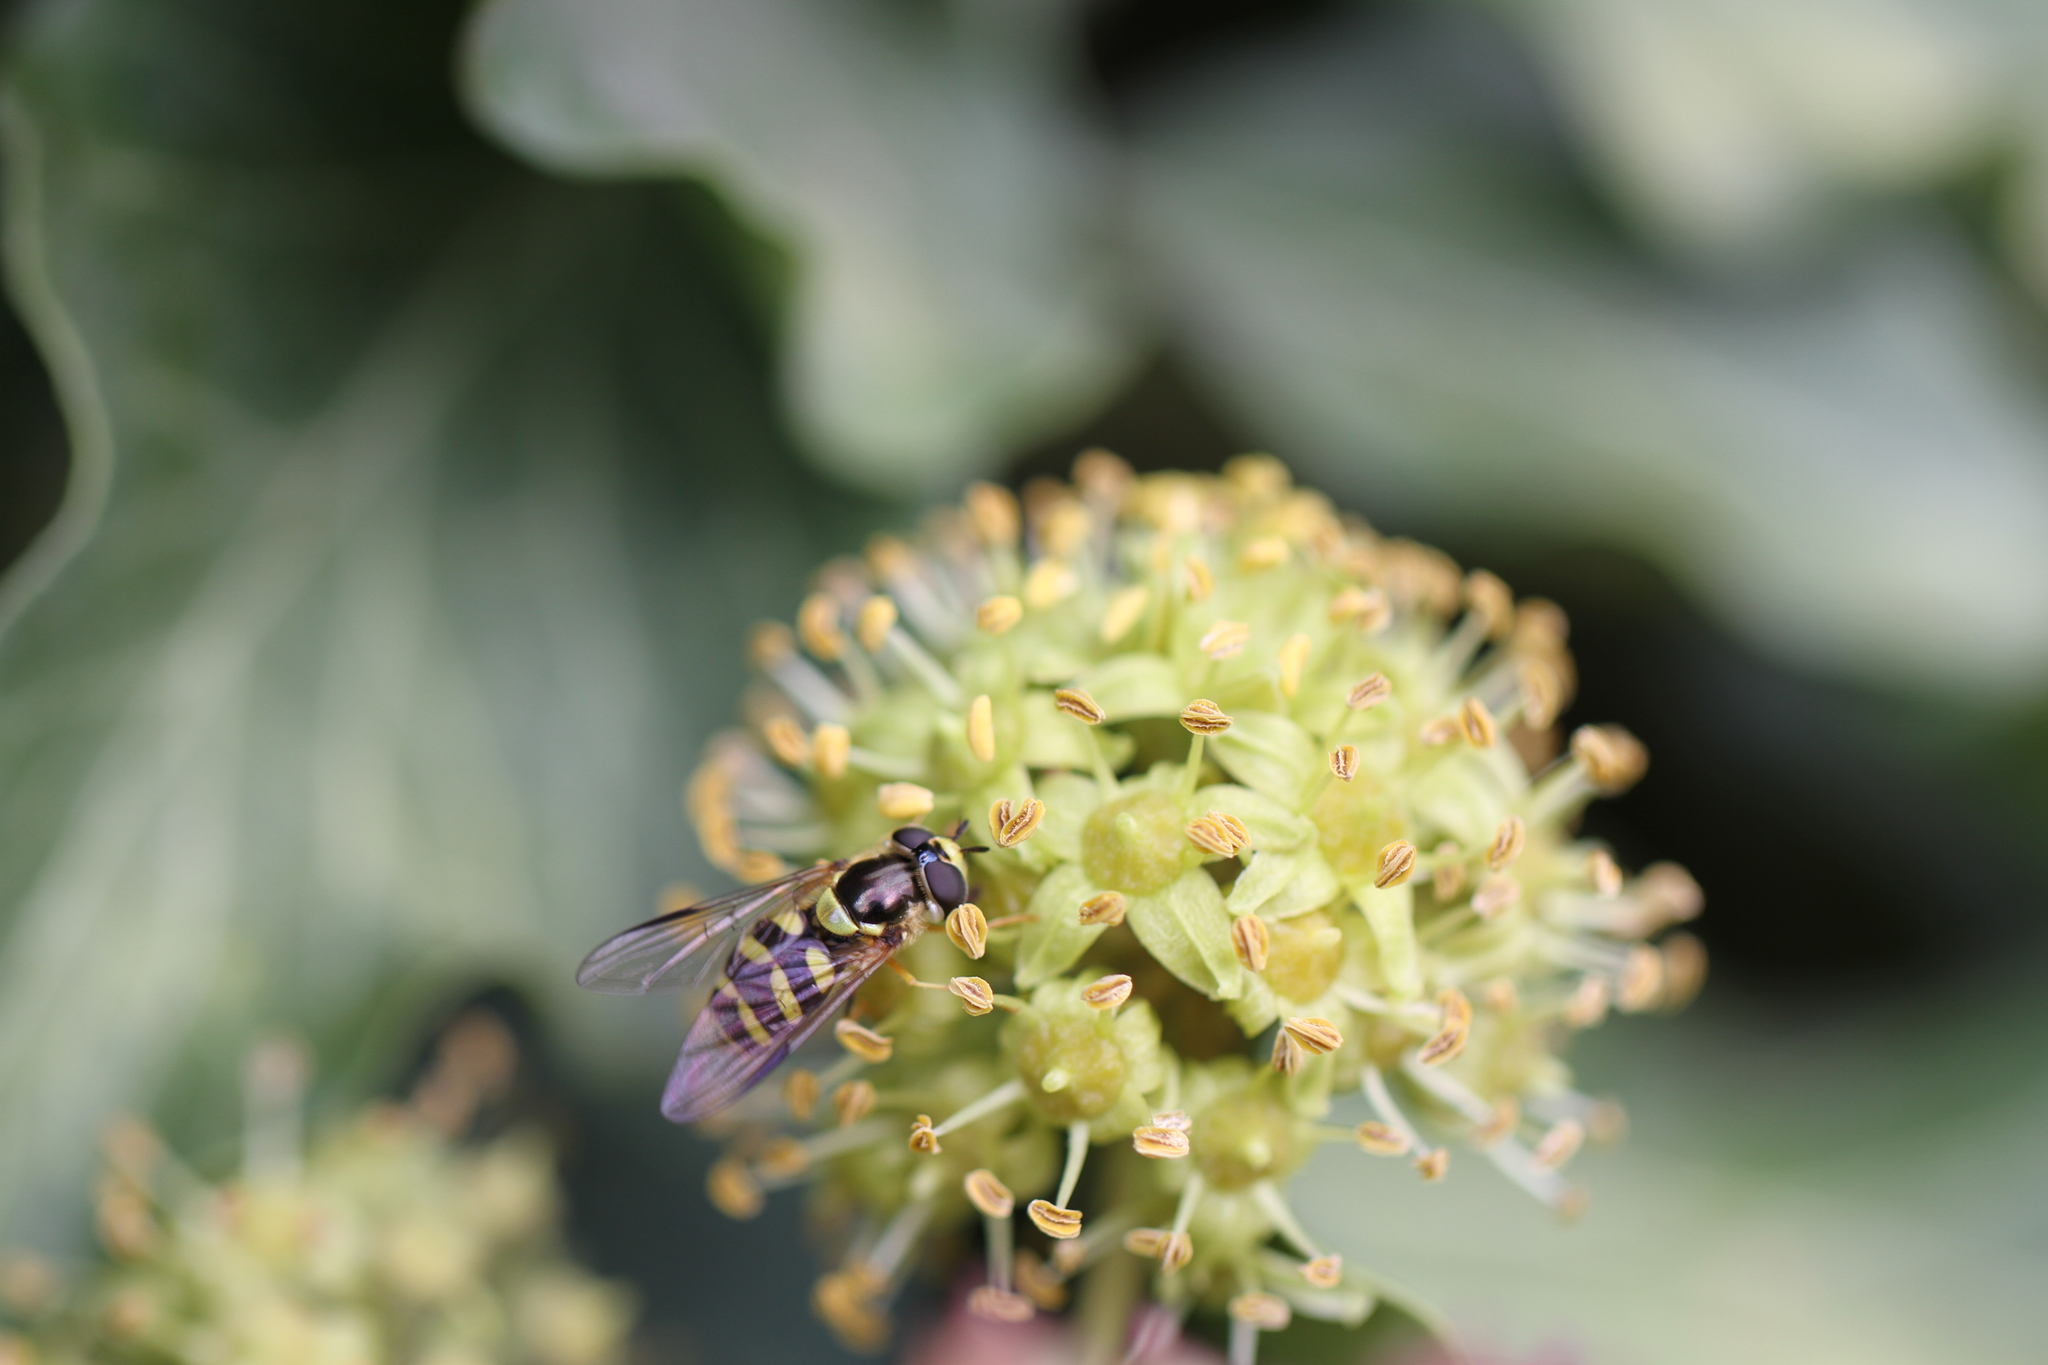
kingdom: Animalia
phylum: Arthropoda
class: Insecta
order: Diptera
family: Syrphidae
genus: Dasysyrphus
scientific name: Dasysyrphus albostriatus
